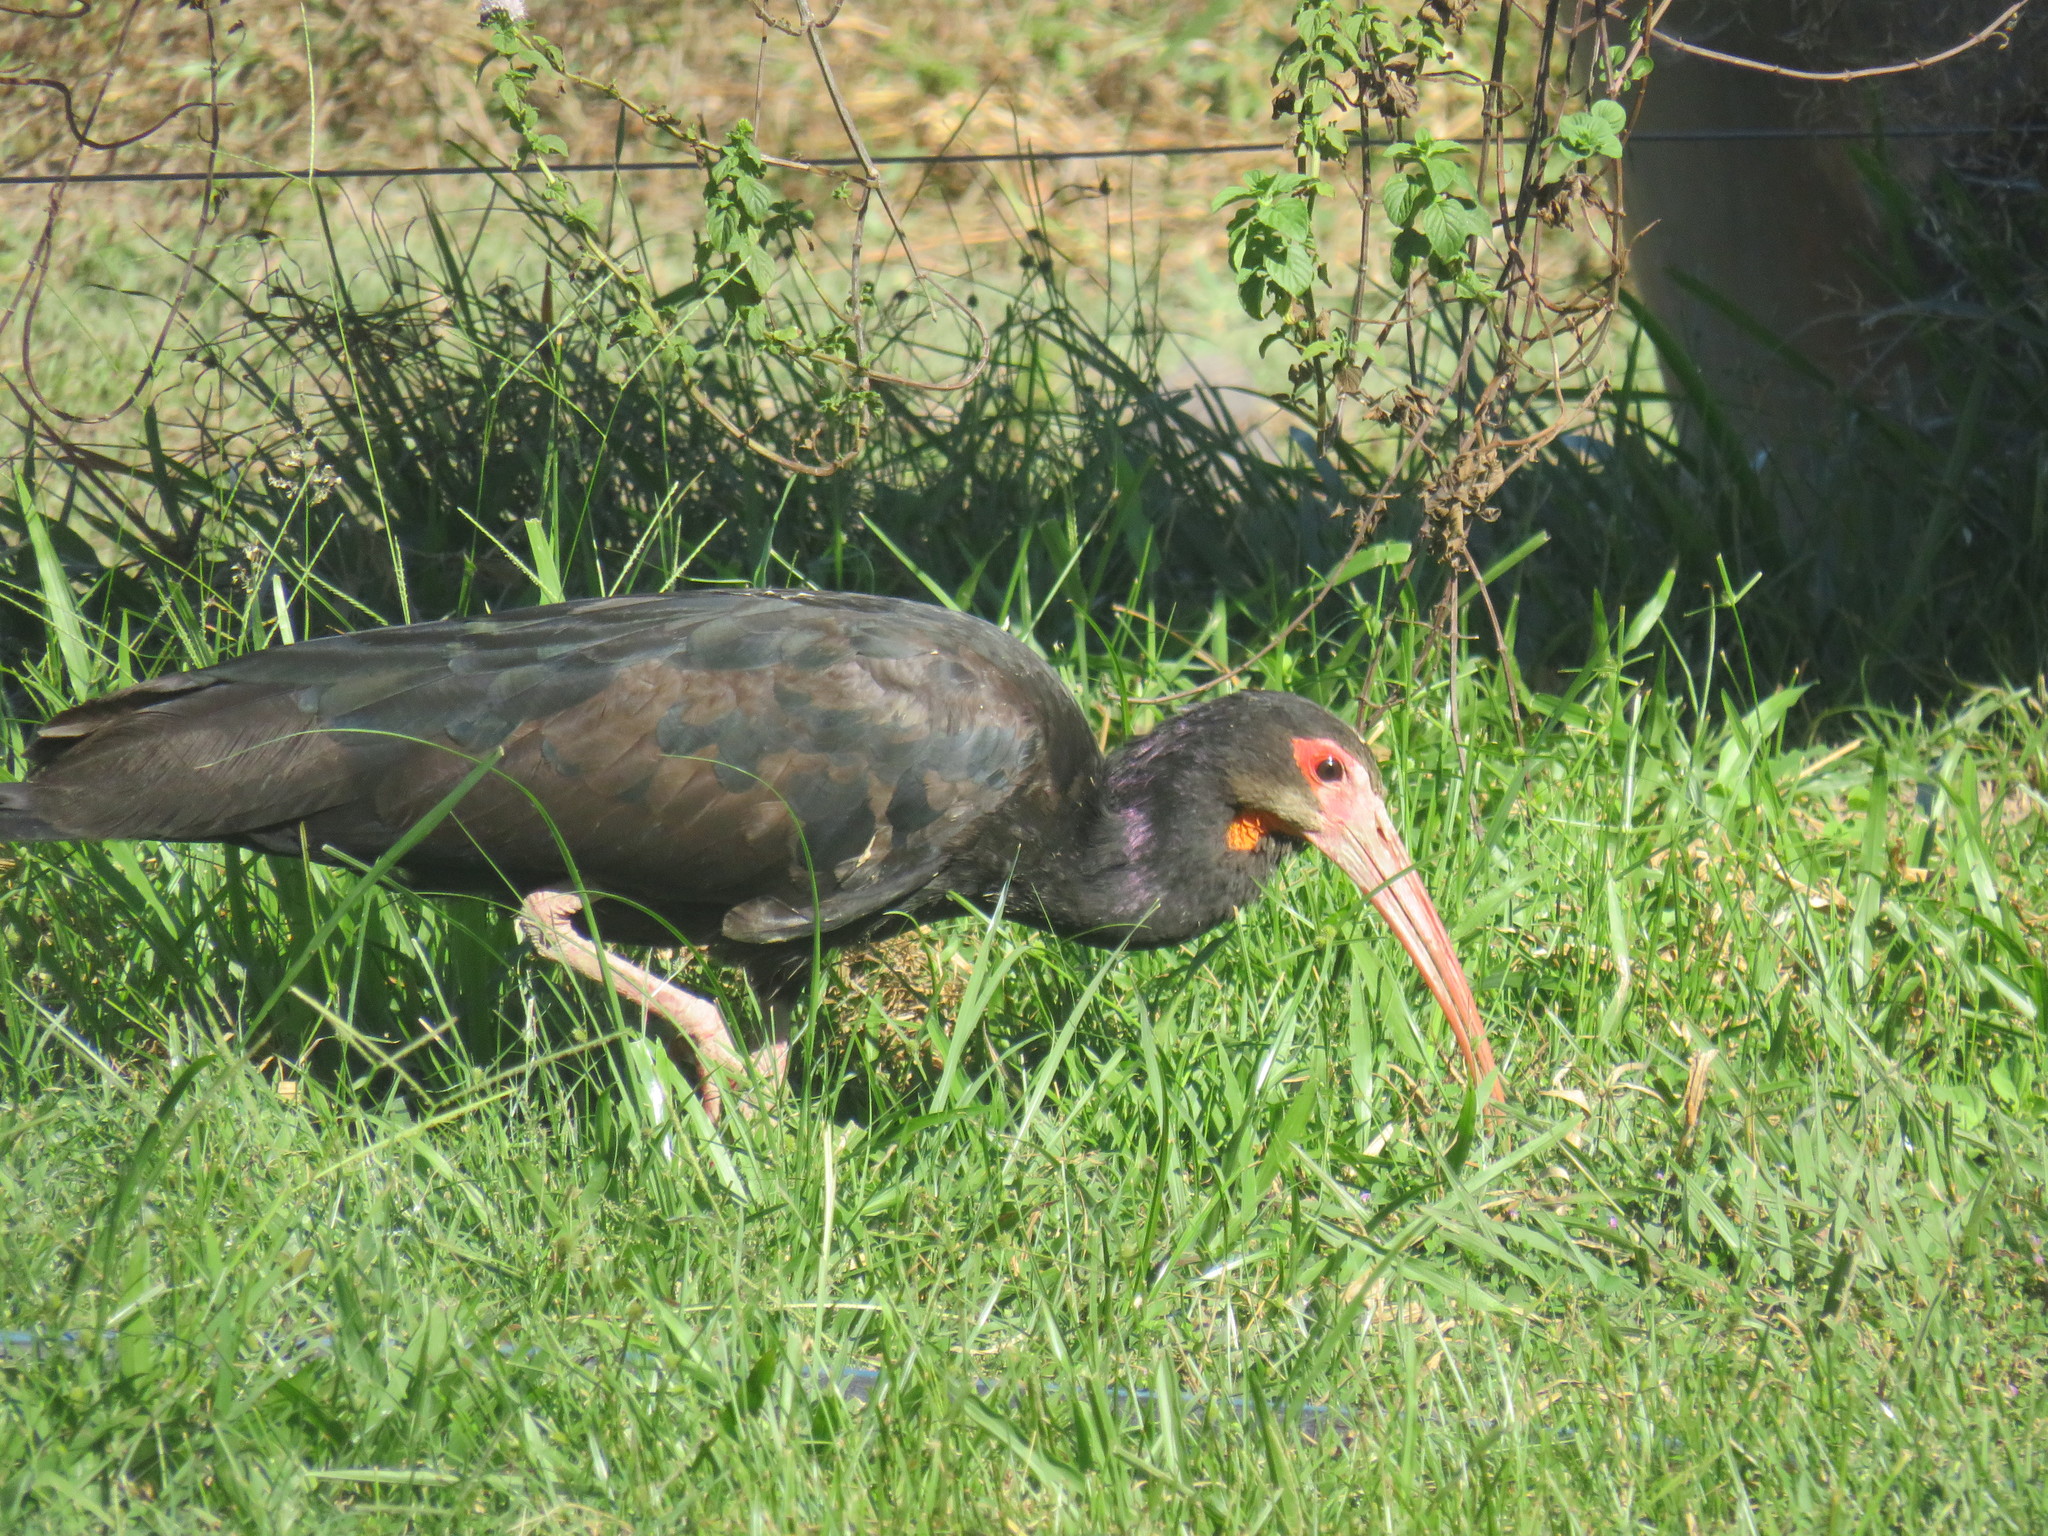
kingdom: Animalia
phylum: Chordata
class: Aves
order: Pelecaniformes
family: Threskiornithidae
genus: Cercibis
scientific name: Cercibis oxycerca
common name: Sharp-tailed ibis
